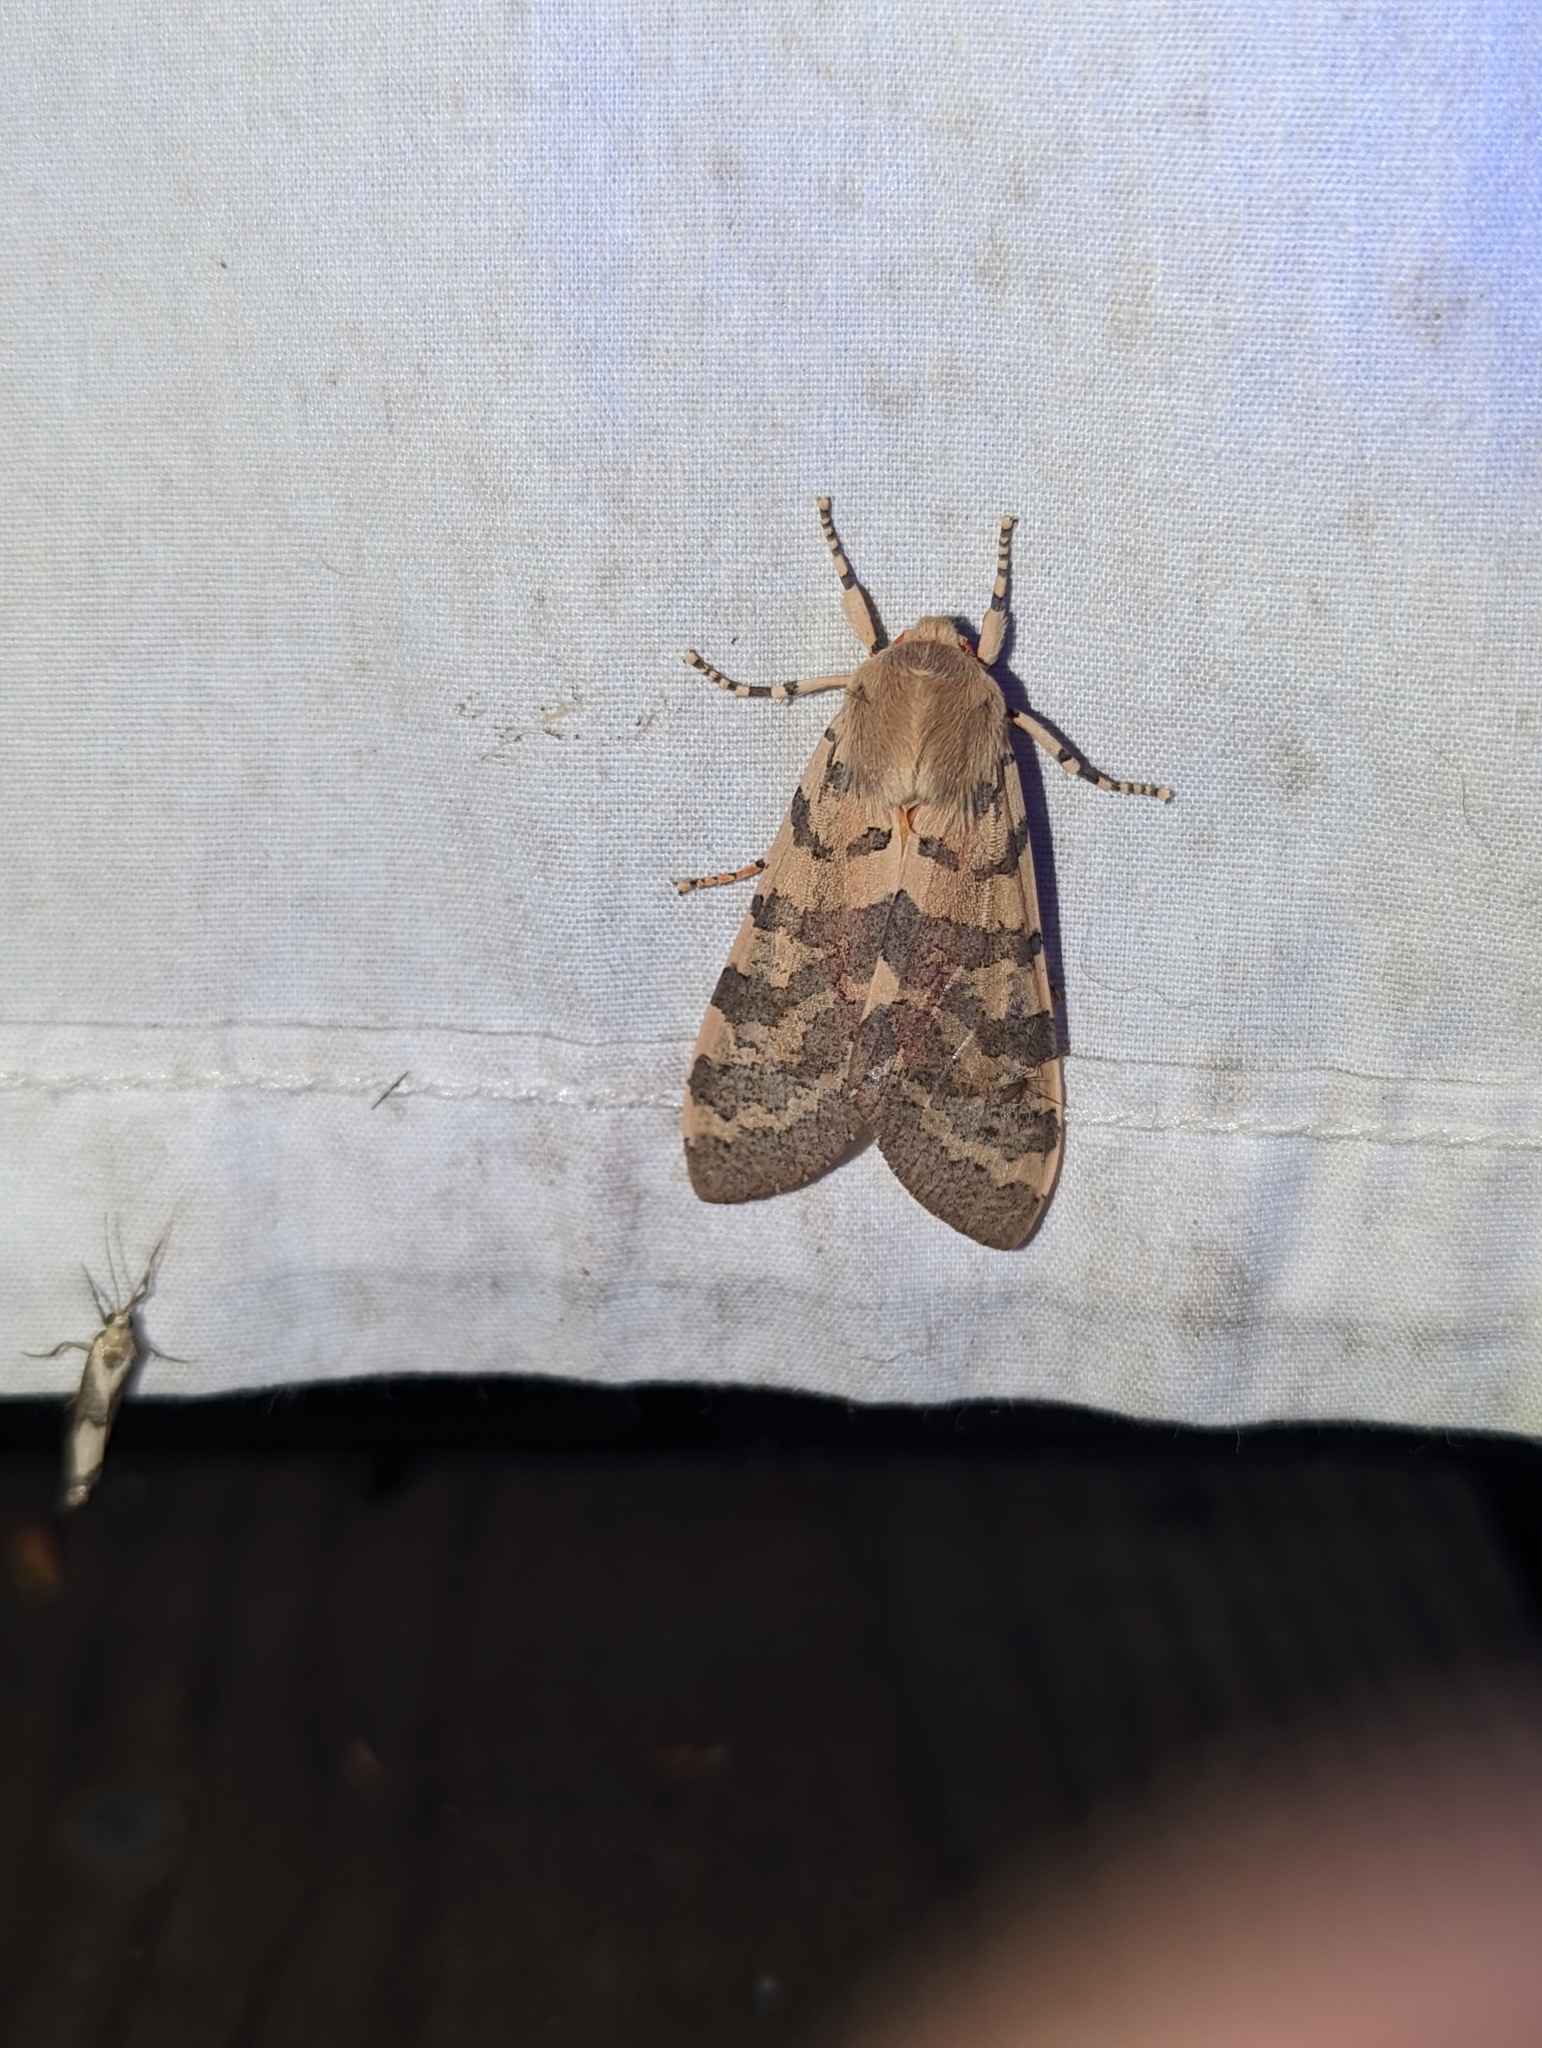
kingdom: Animalia
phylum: Arthropoda
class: Insecta
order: Lepidoptera
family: Erebidae
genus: Hemihyalea
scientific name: Hemihyalea edwardsii
